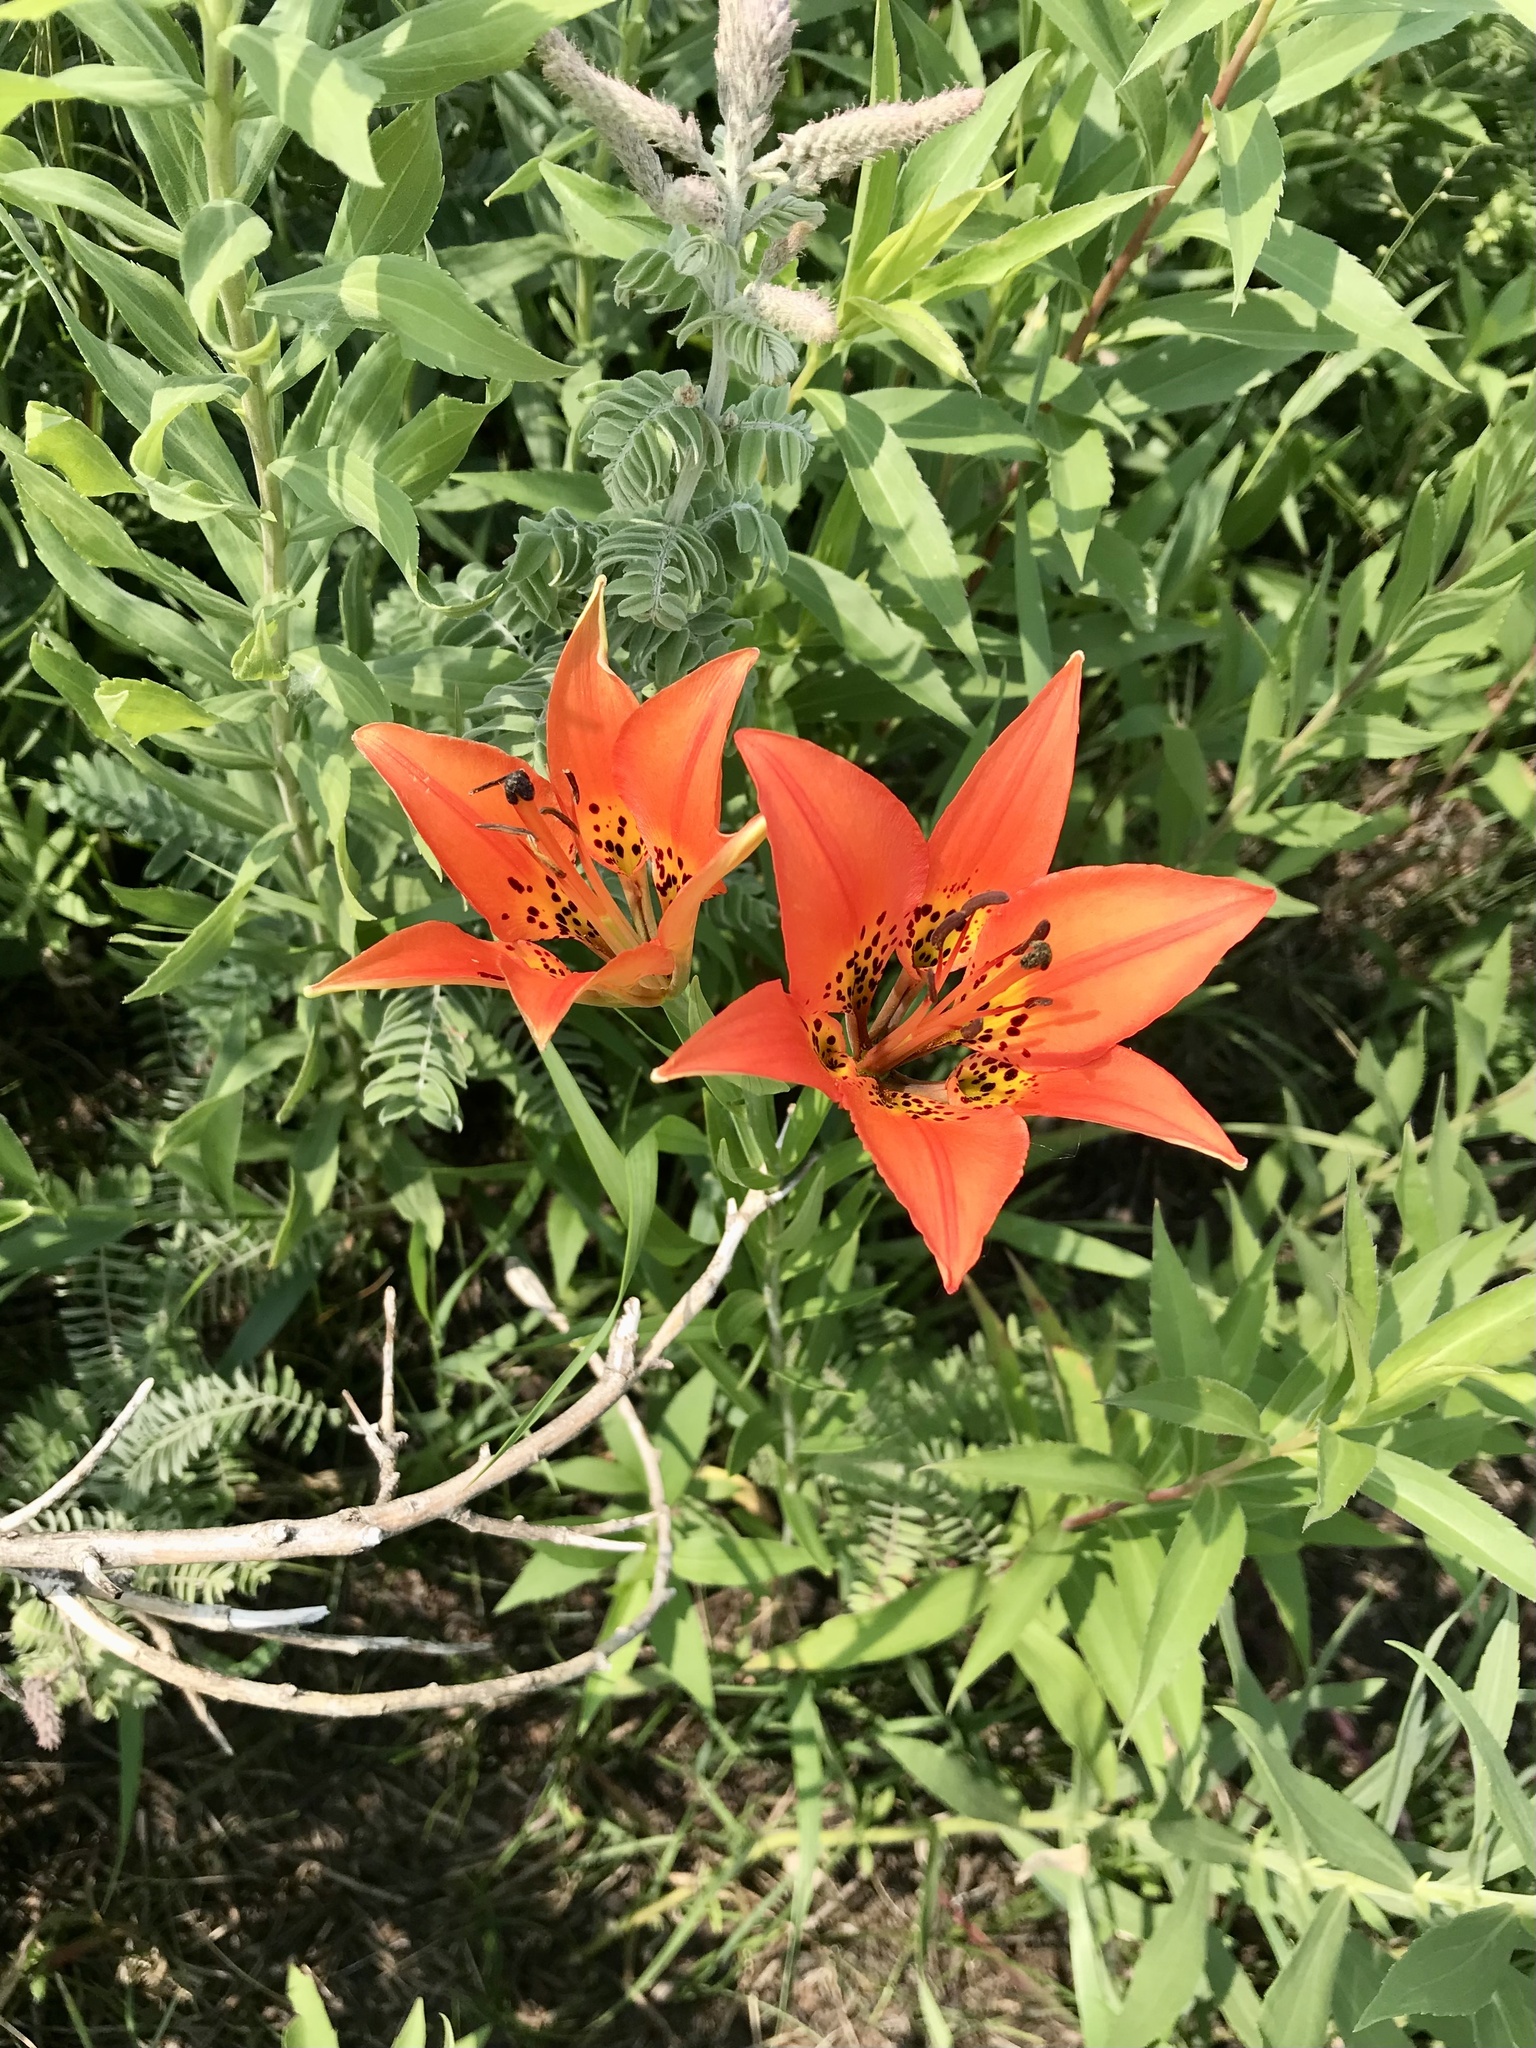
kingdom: Plantae
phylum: Tracheophyta
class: Liliopsida
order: Liliales
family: Liliaceae
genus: Lilium
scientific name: Lilium philadelphicum
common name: Red lily
